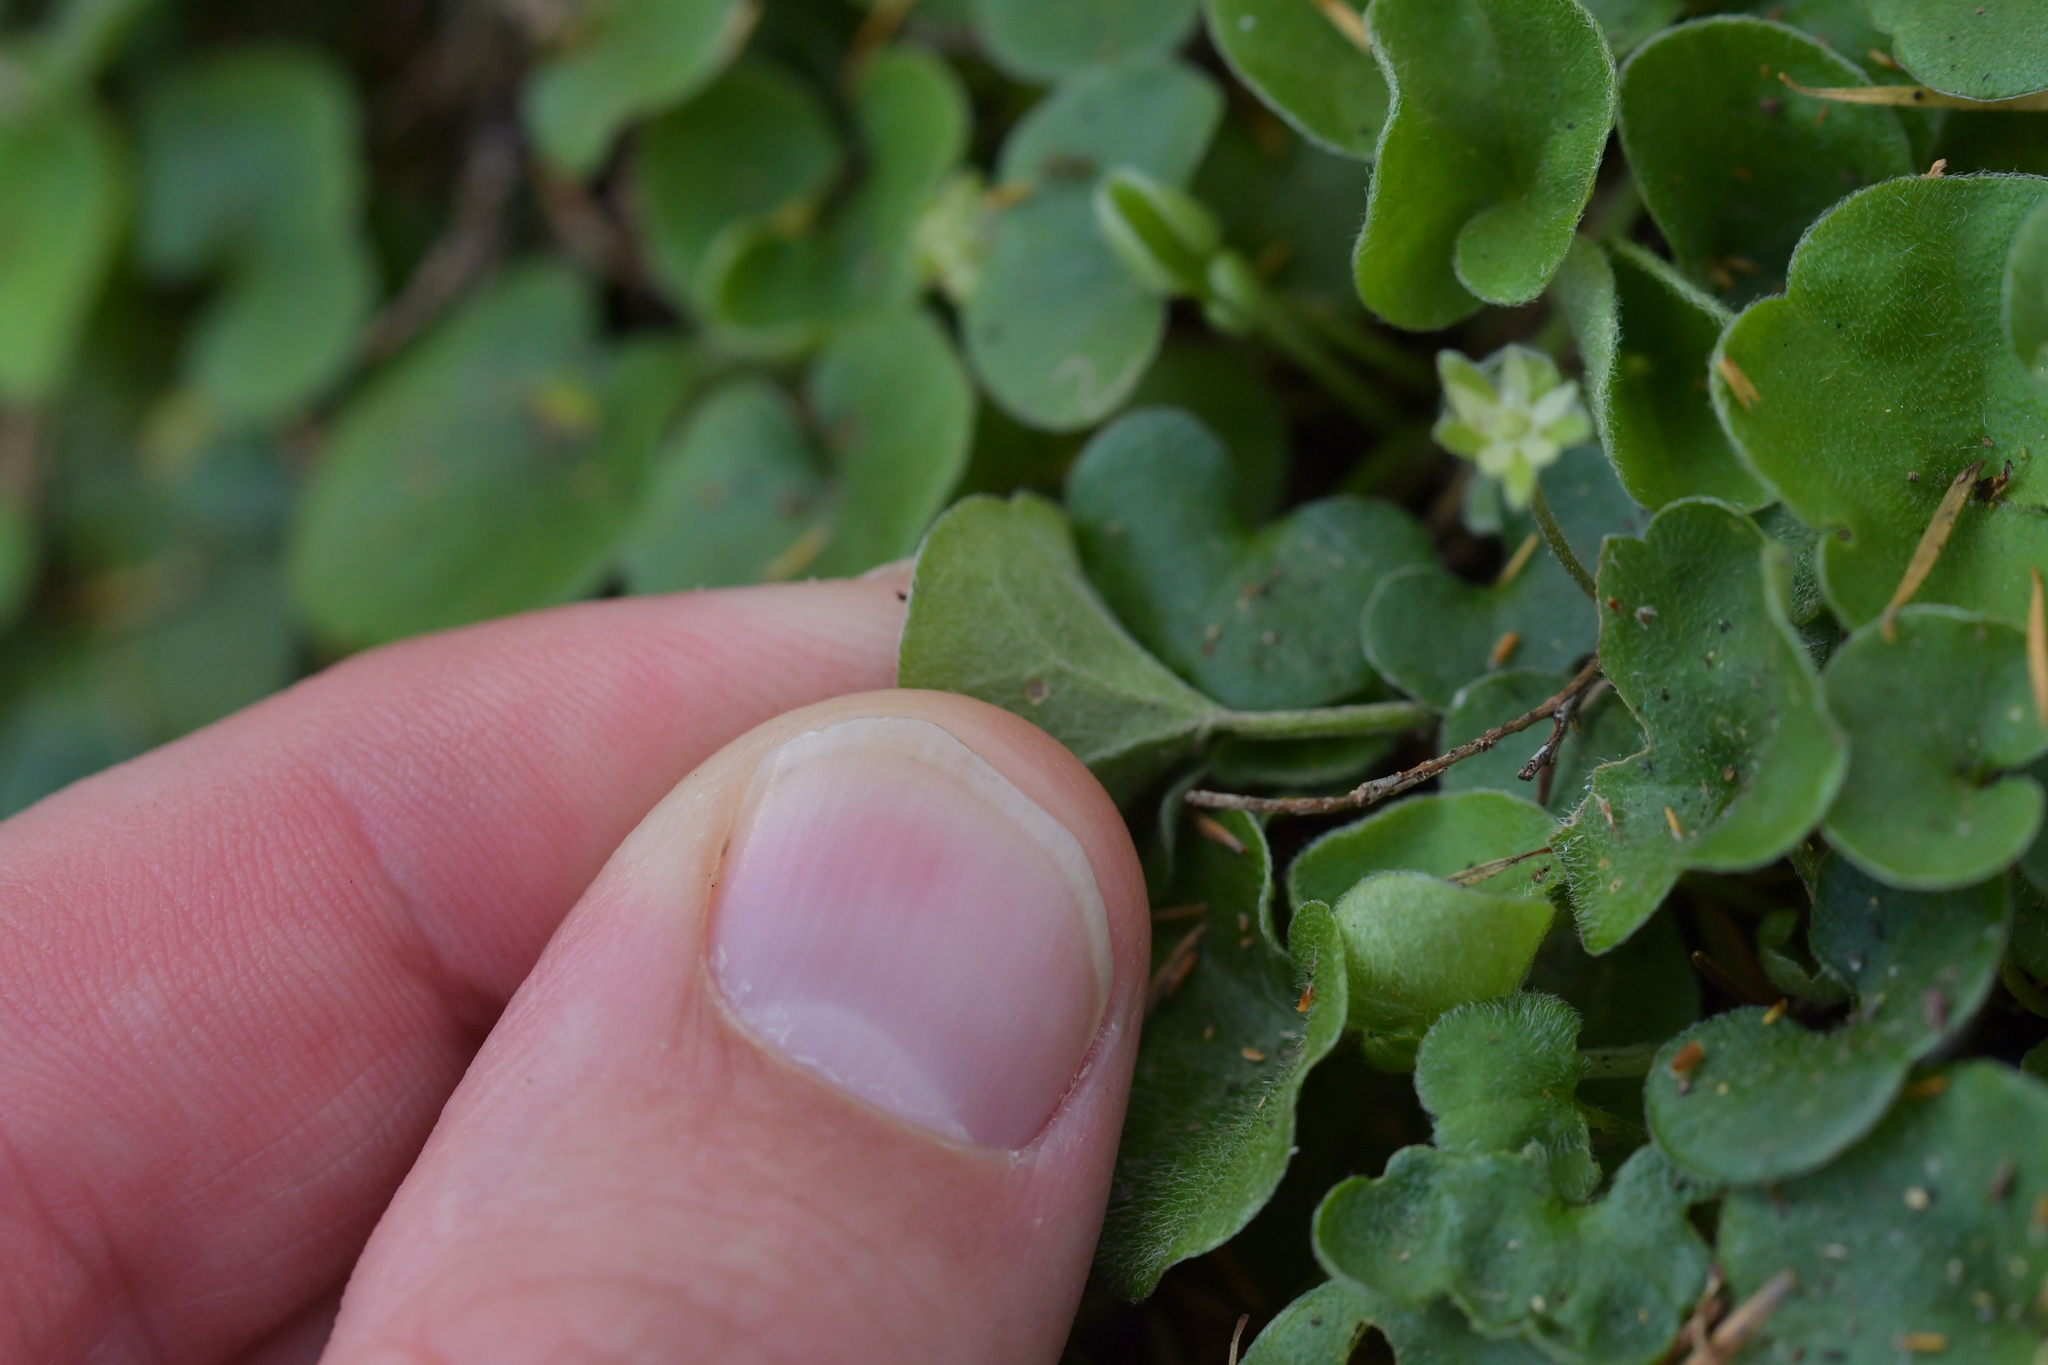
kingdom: Plantae
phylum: Tracheophyta
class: Magnoliopsida
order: Solanales
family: Convolvulaceae
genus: Dichondra
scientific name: Dichondra repens
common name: Kidneyweed
